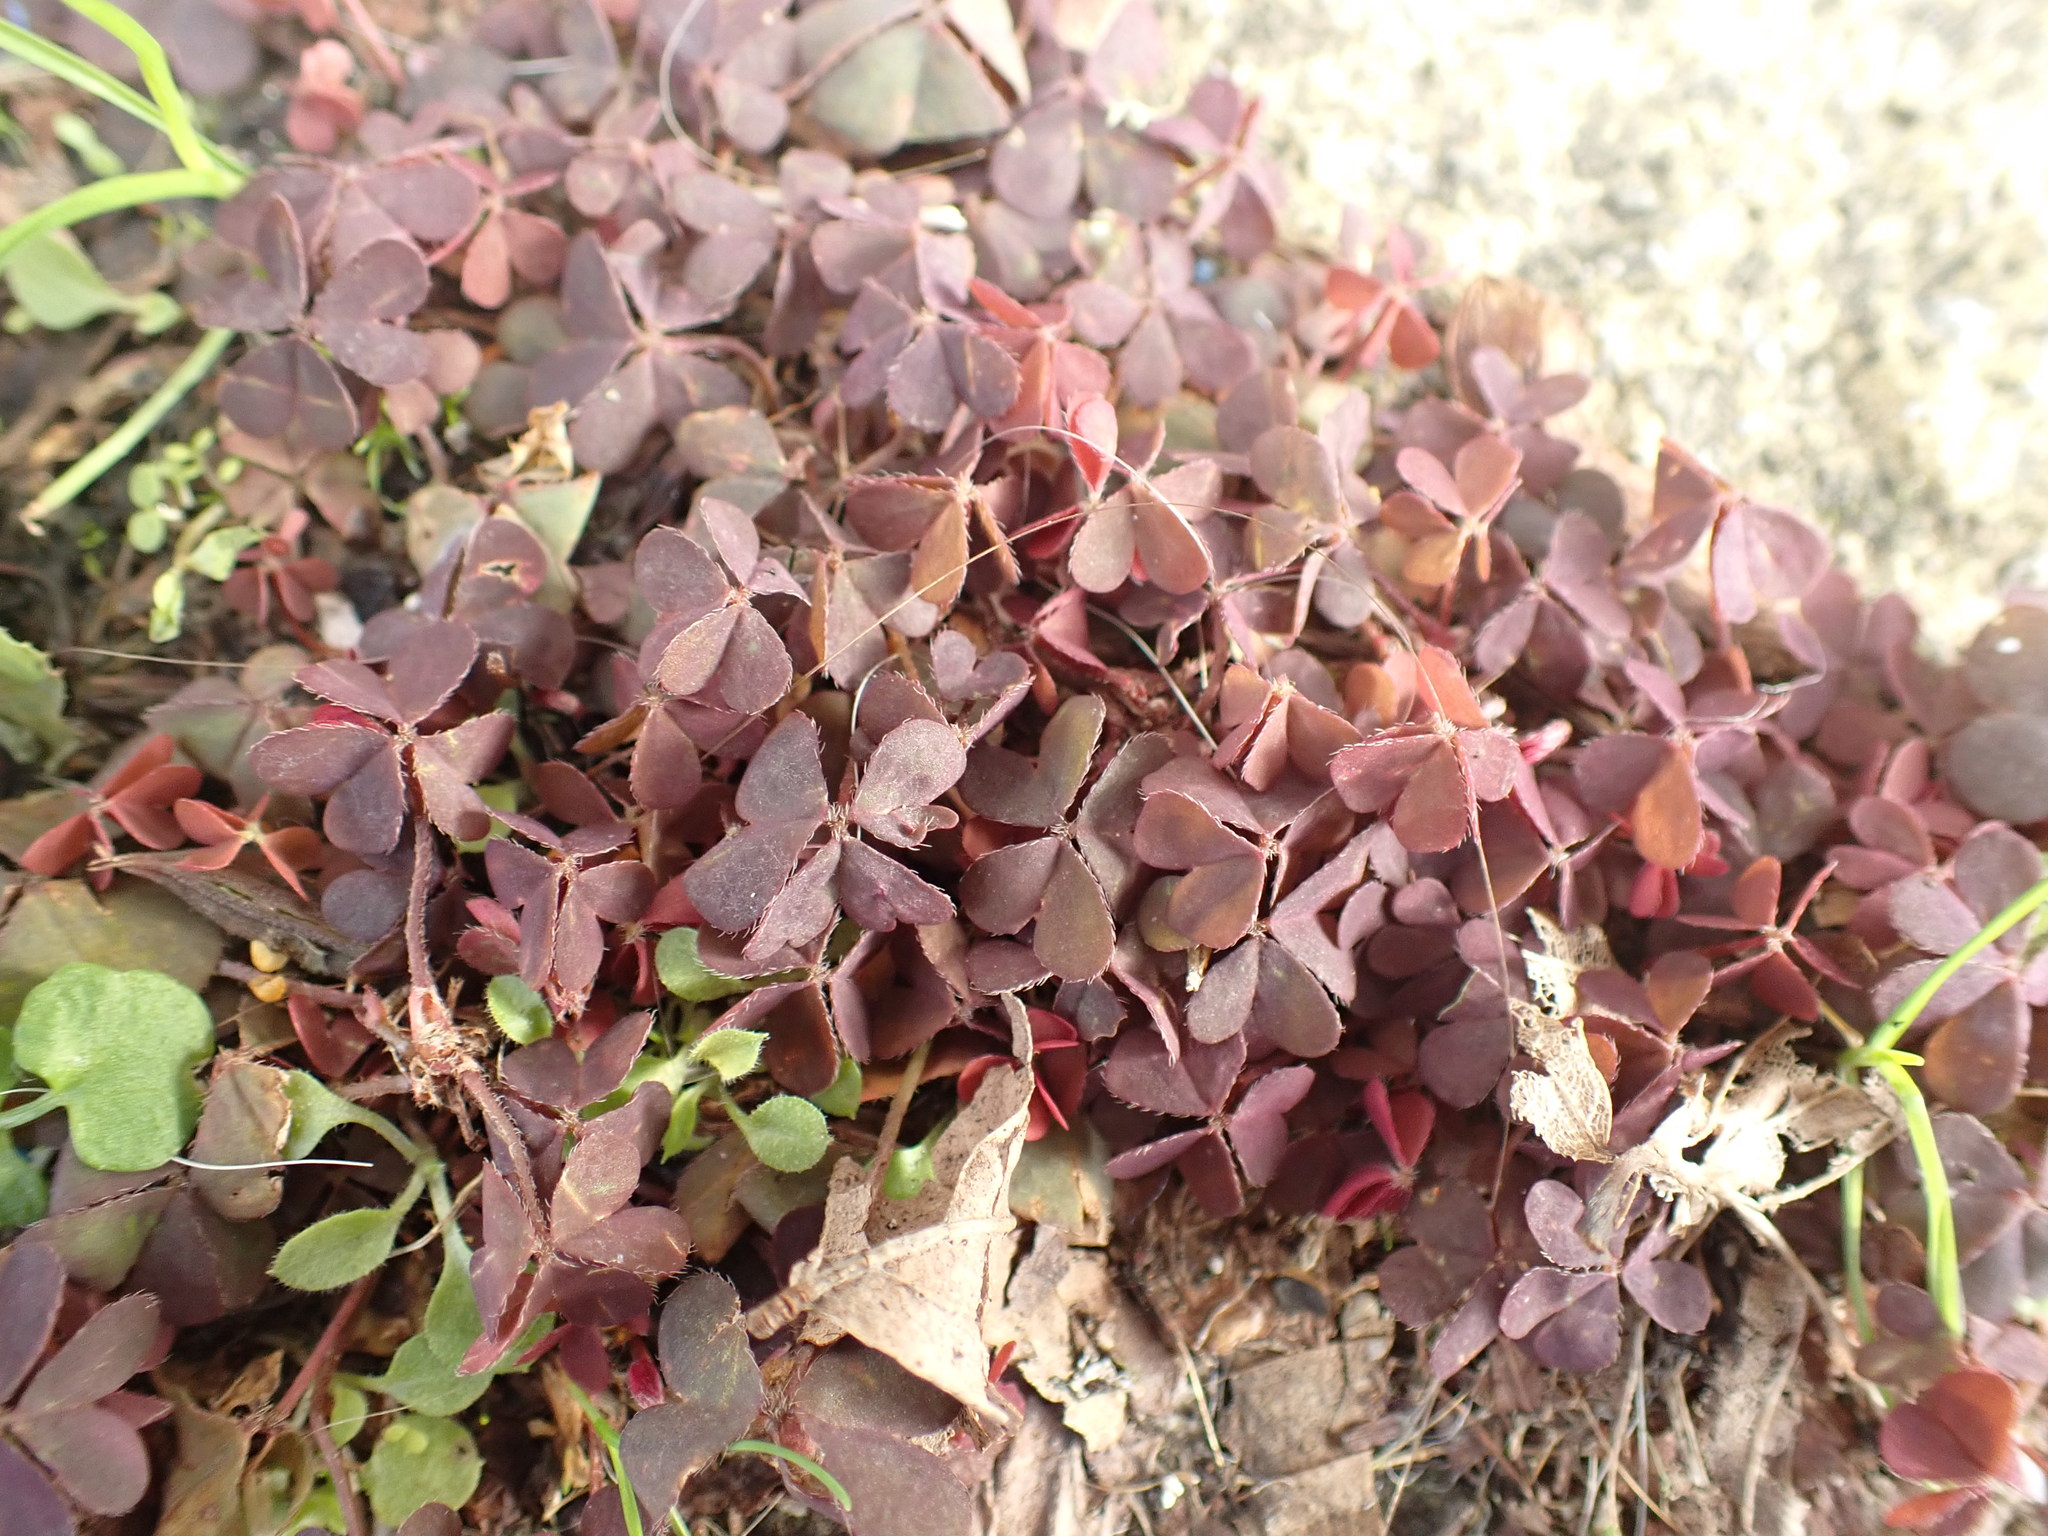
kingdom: Plantae
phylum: Tracheophyta
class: Magnoliopsida
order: Oxalidales
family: Oxalidaceae
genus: Oxalis
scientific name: Oxalis corniculata
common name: Procumbent yellow-sorrel
